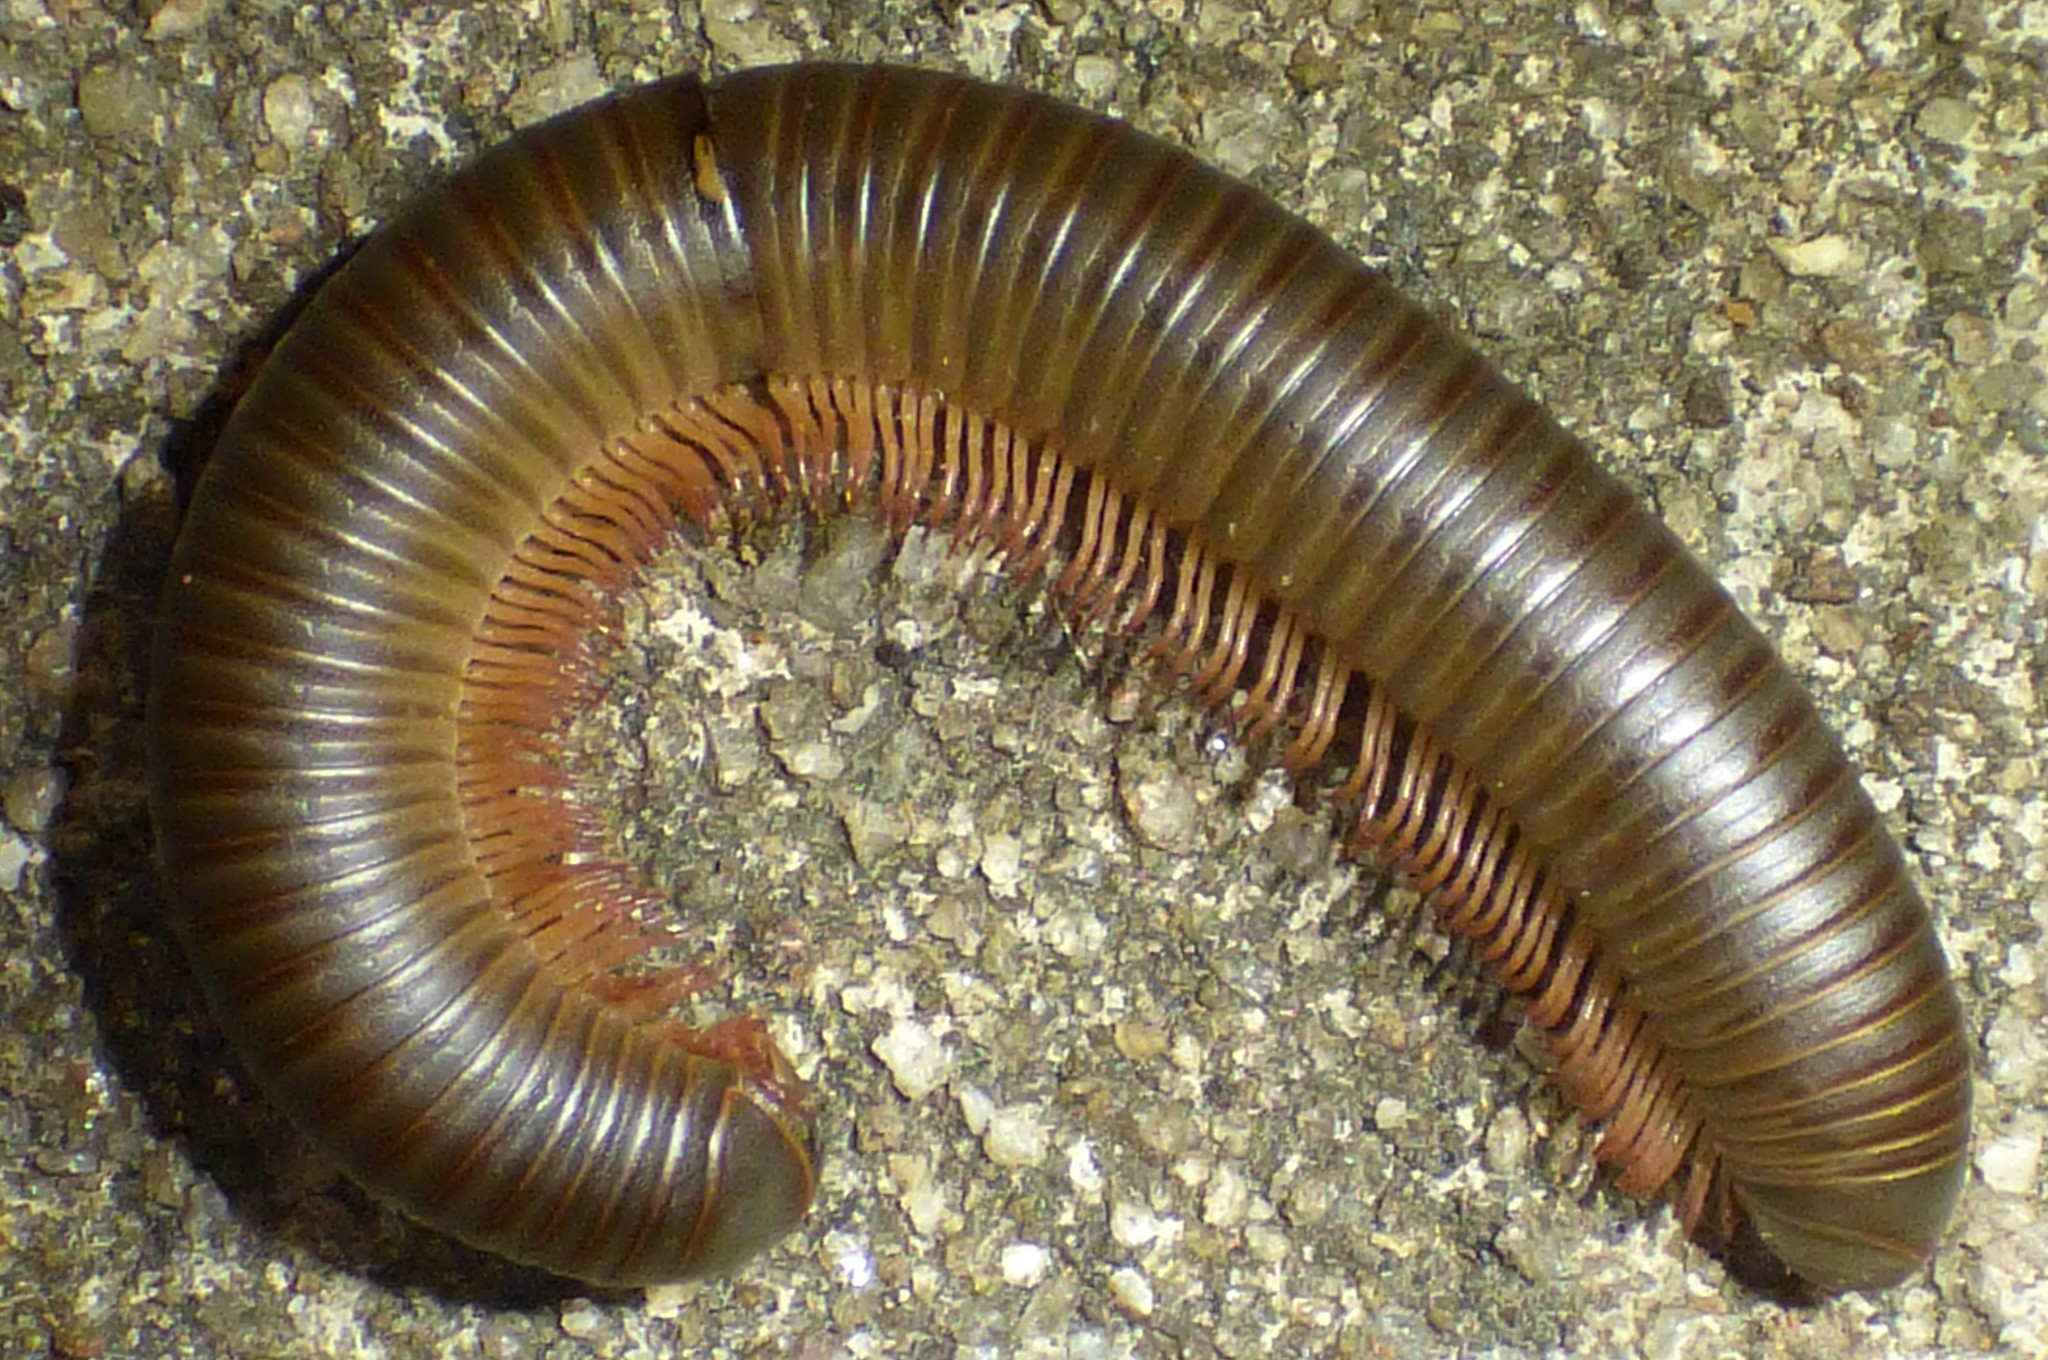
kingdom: Animalia
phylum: Arthropoda
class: Diplopoda
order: Spirobolida
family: Spirobolidae
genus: Narceus
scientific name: Narceus
